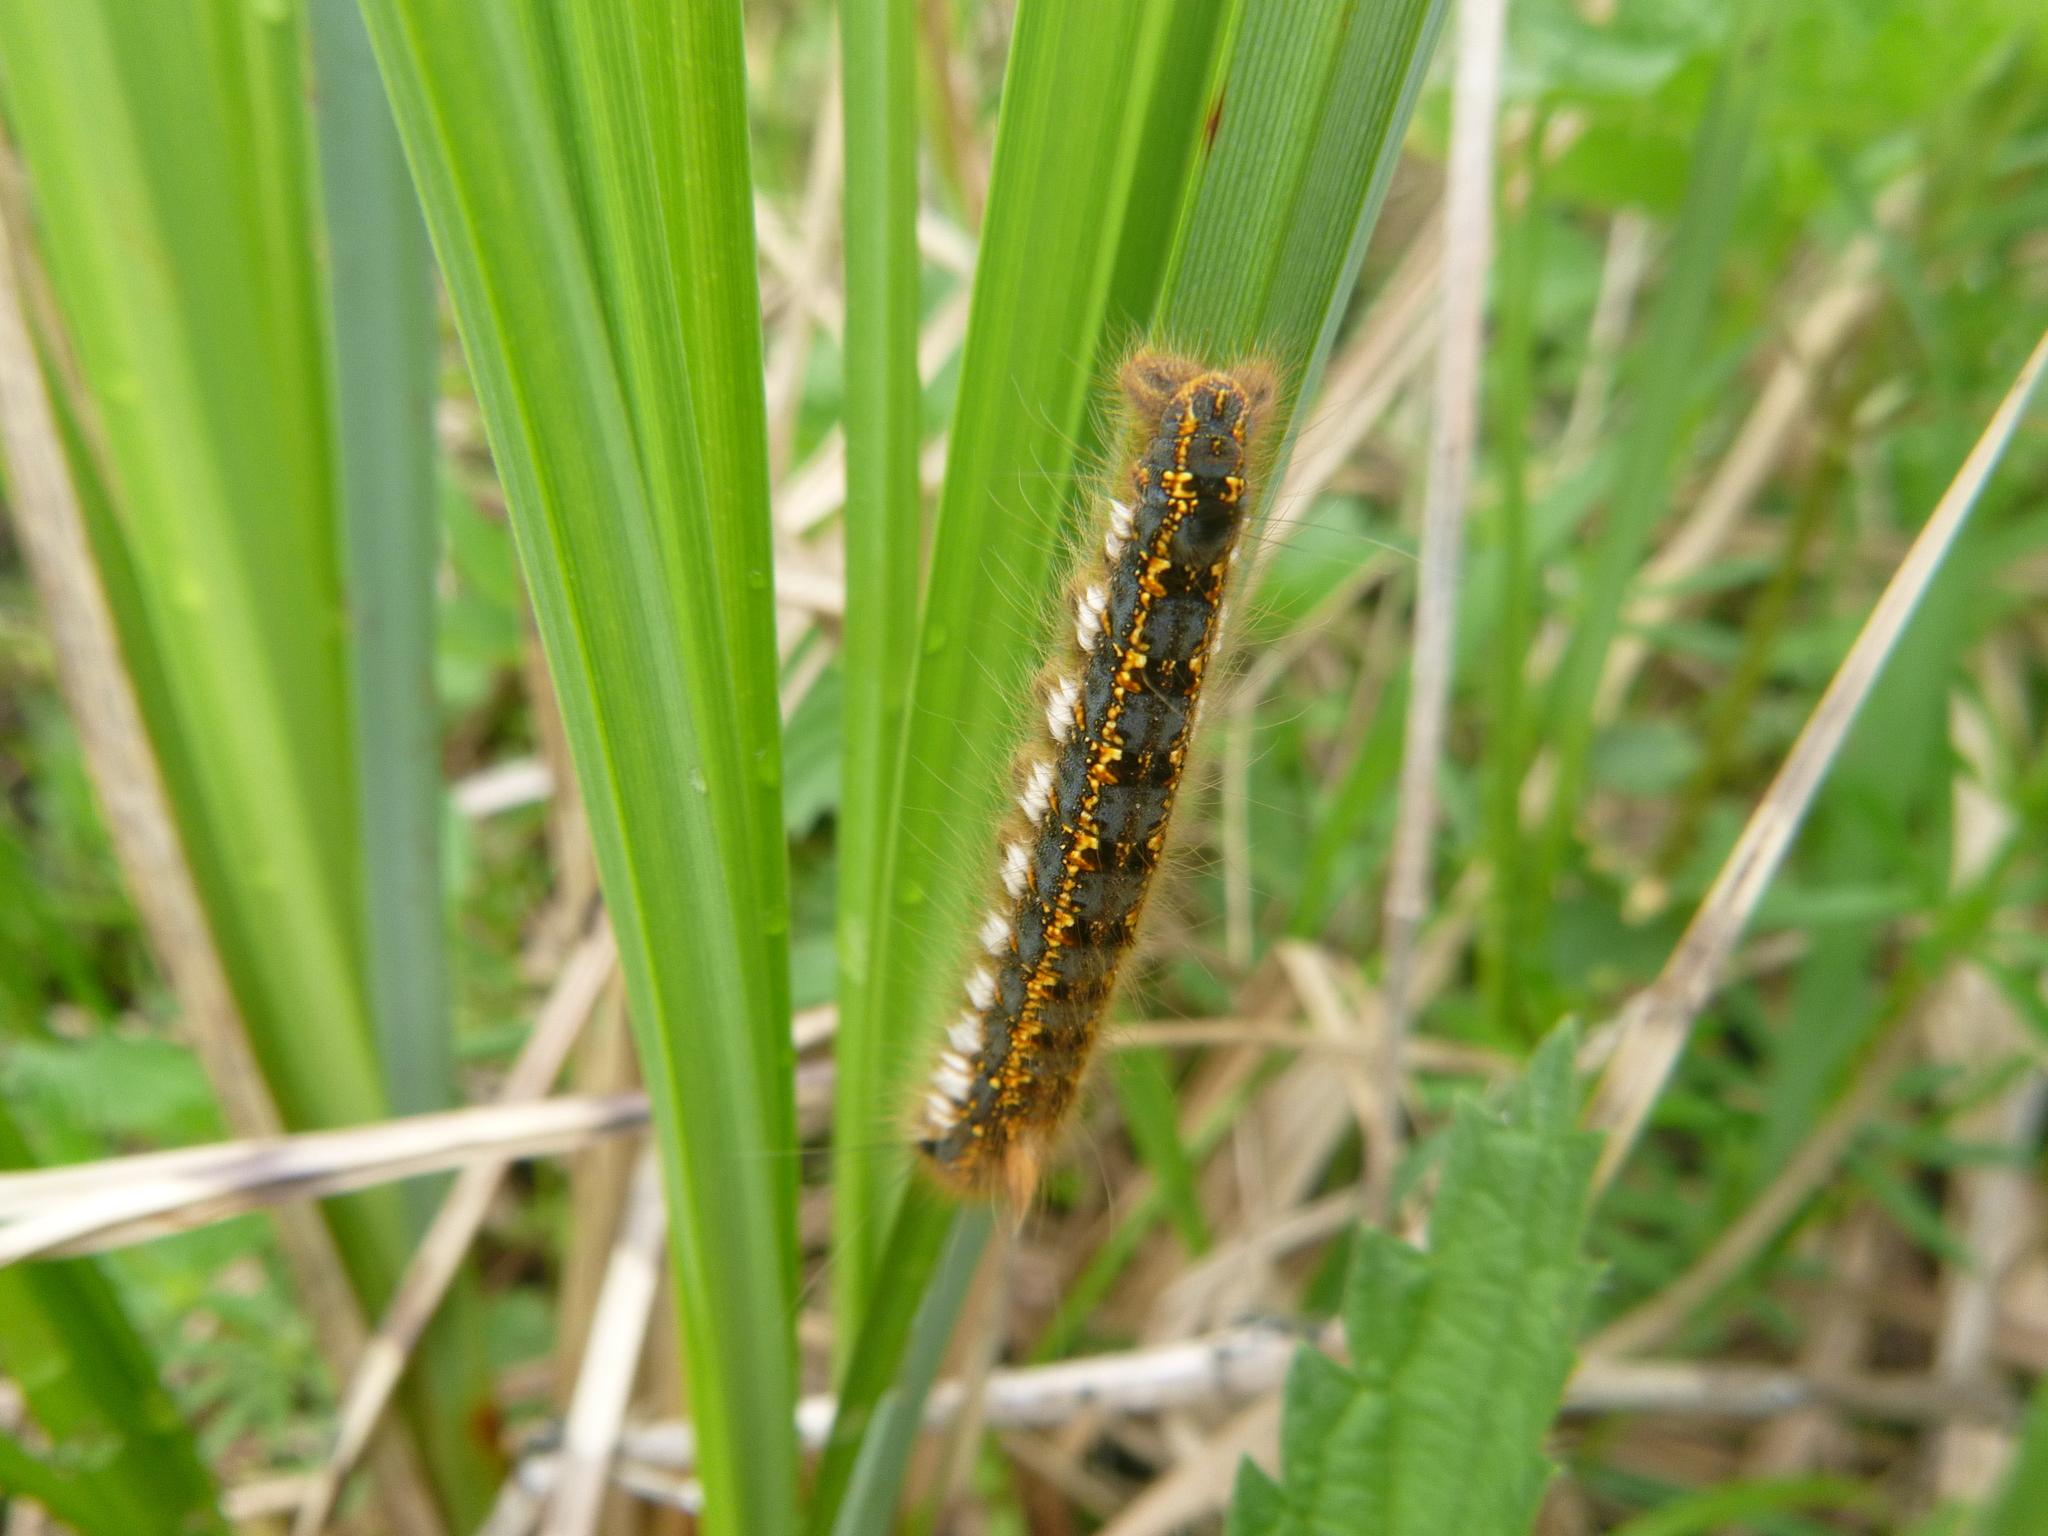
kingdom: Animalia
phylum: Arthropoda
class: Insecta
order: Lepidoptera
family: Lasiocampidae
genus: Euthrix
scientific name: Euthrix potatoria
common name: Drinker
